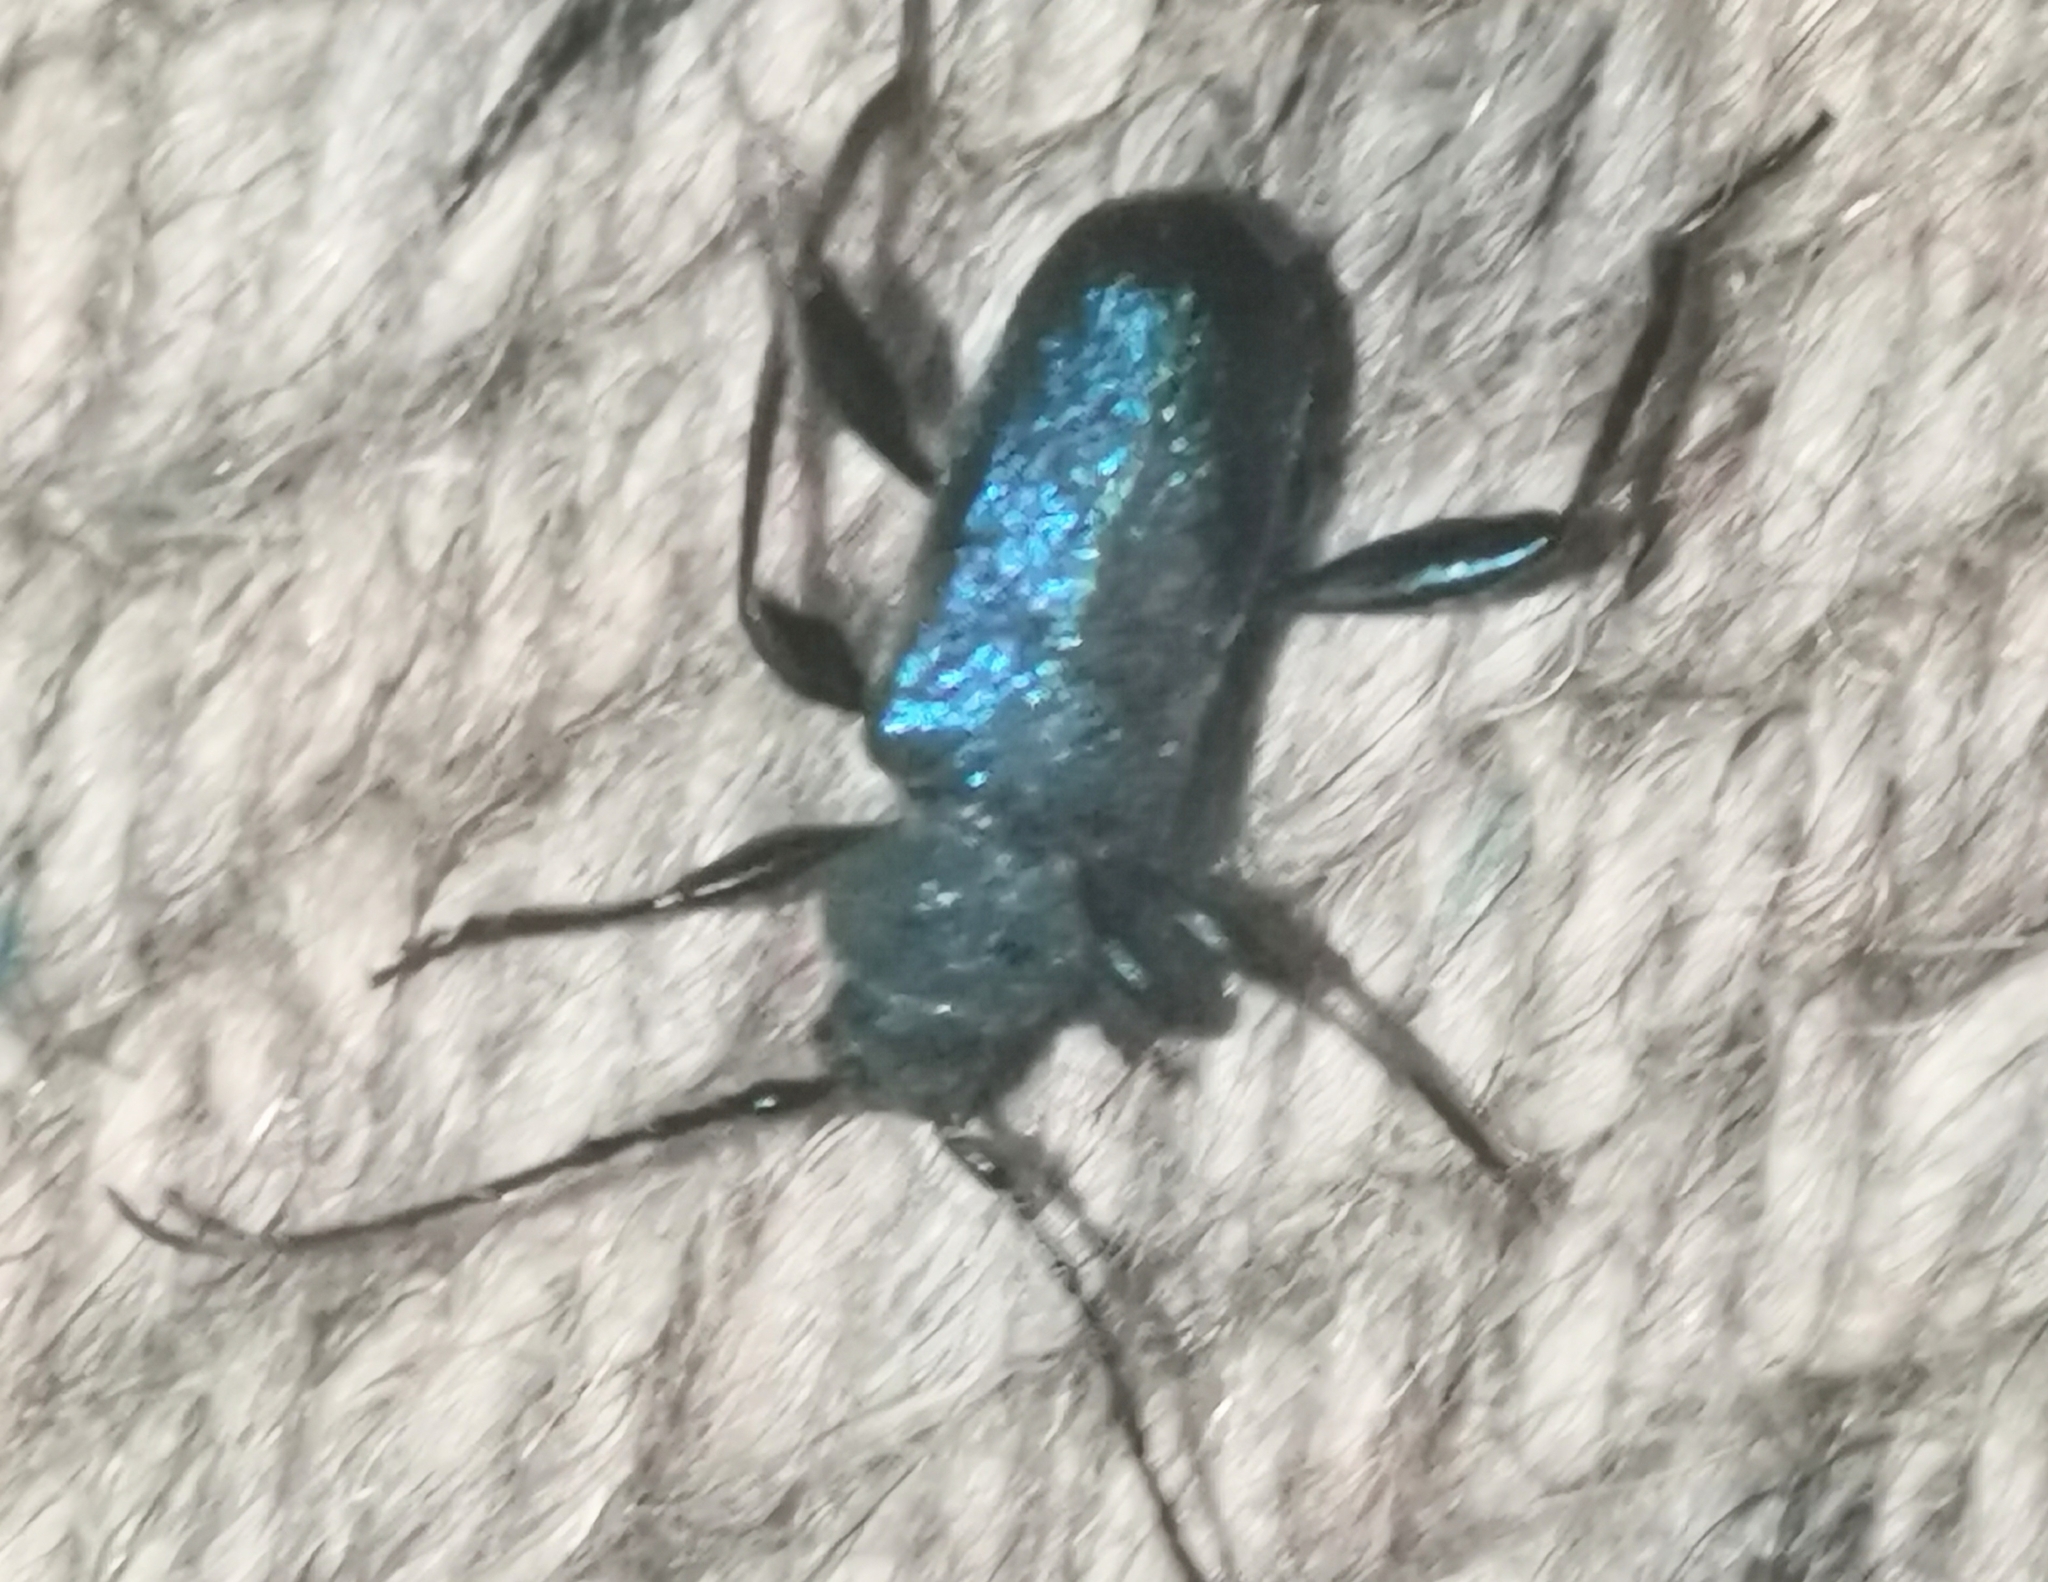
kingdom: Animalia
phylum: Arthropoda
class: Insecta
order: Coleoptera
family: Cerambycidae
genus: Callidium
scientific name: Callidium violaceum
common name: Violet tanbark beetle
